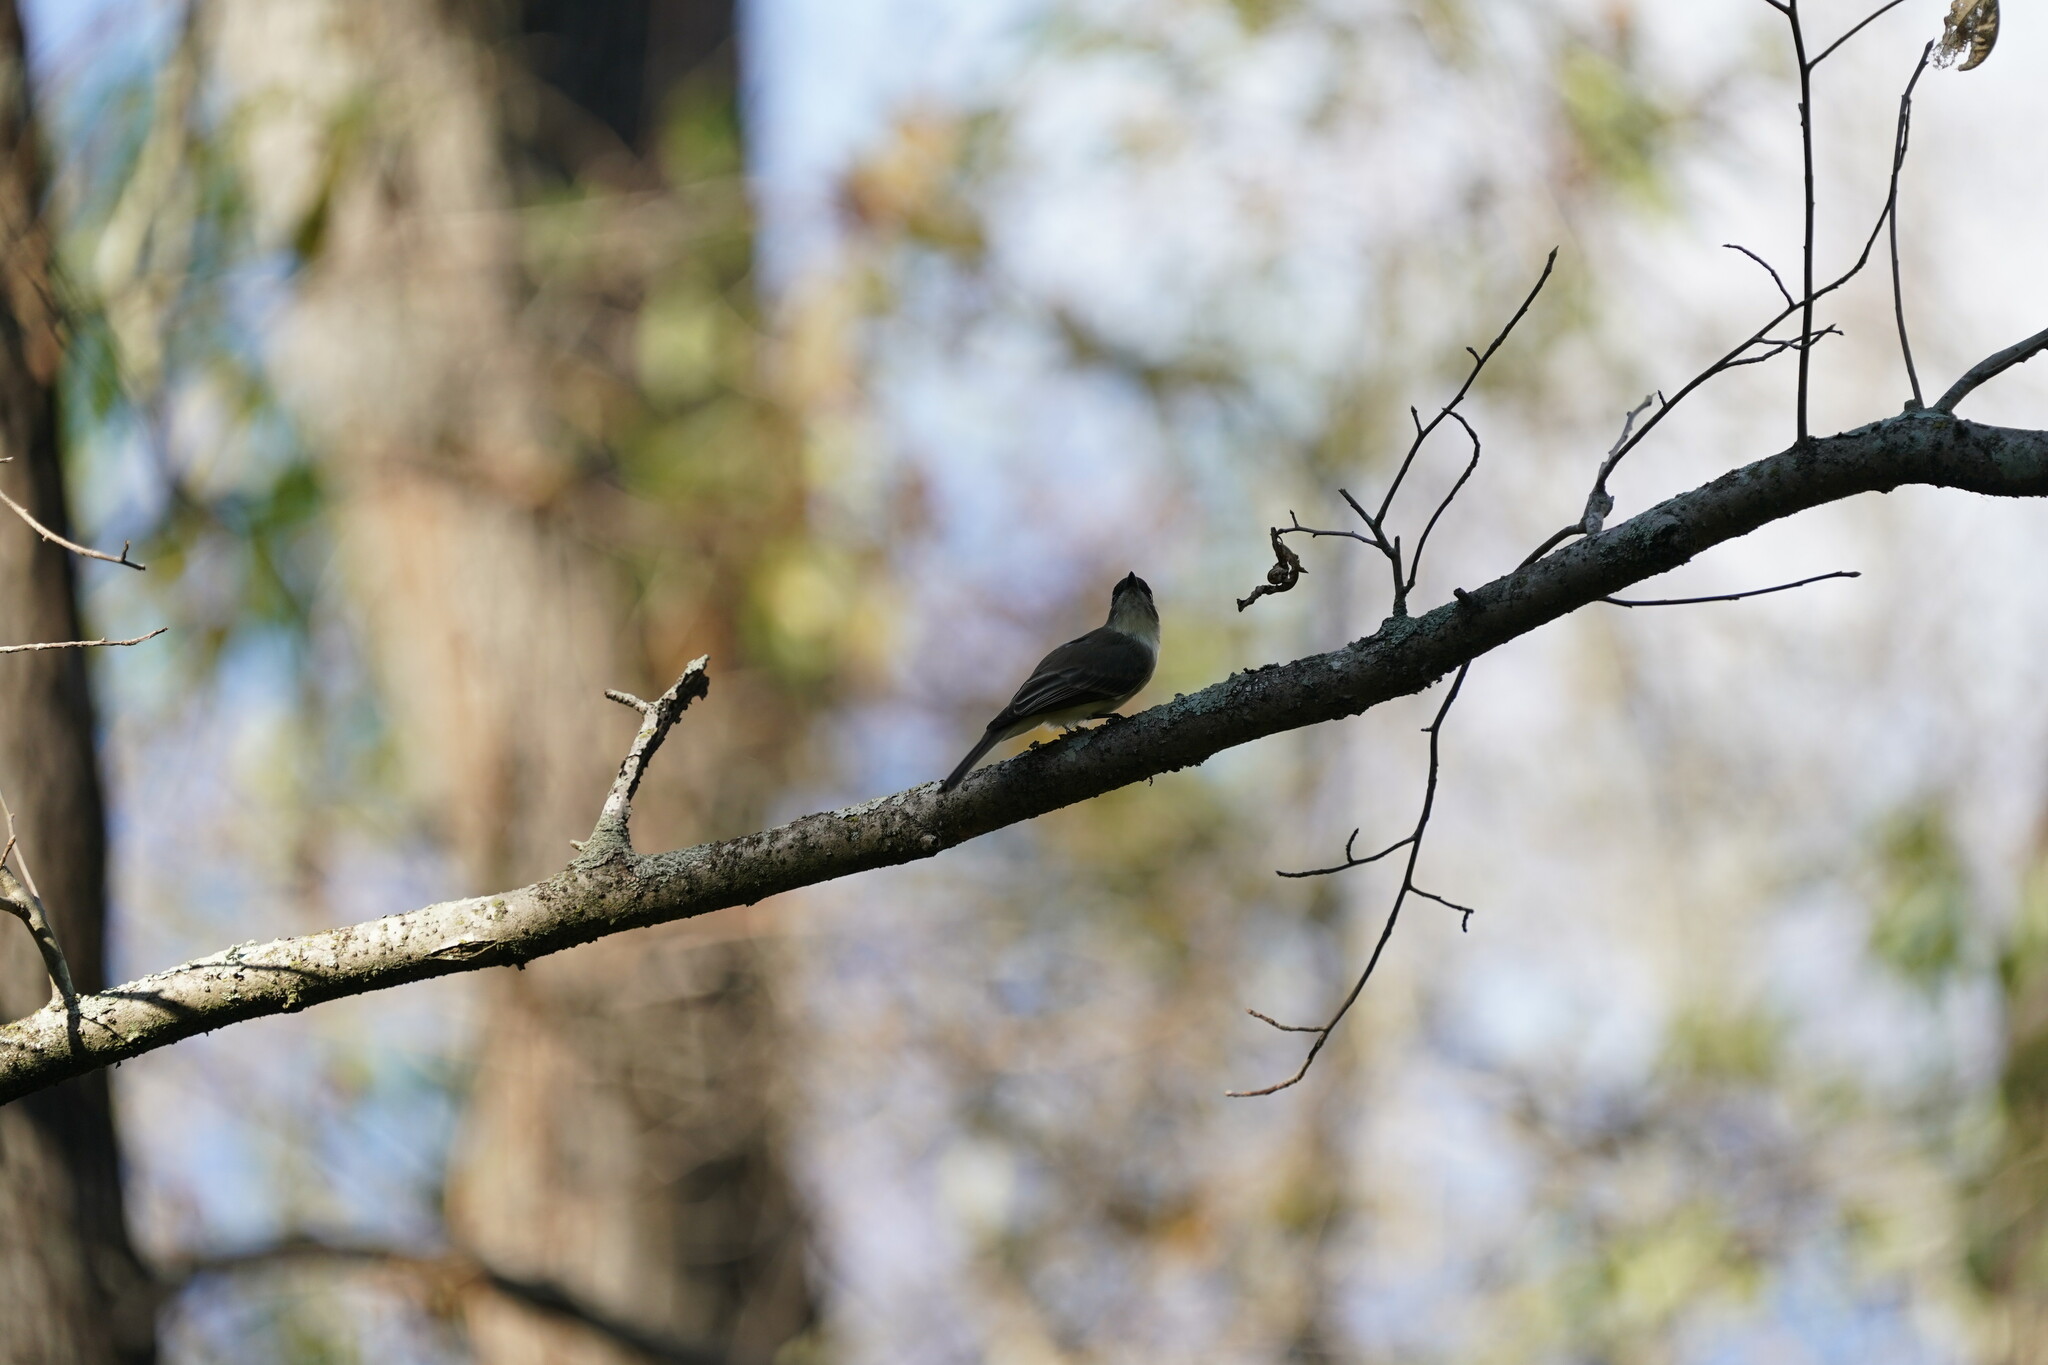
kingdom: Animalia
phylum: Chordata
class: Aves
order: Passeriformes
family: Tyrannidae
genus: Sayornis
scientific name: Sayornis phoebe
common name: Eastern phoebe
